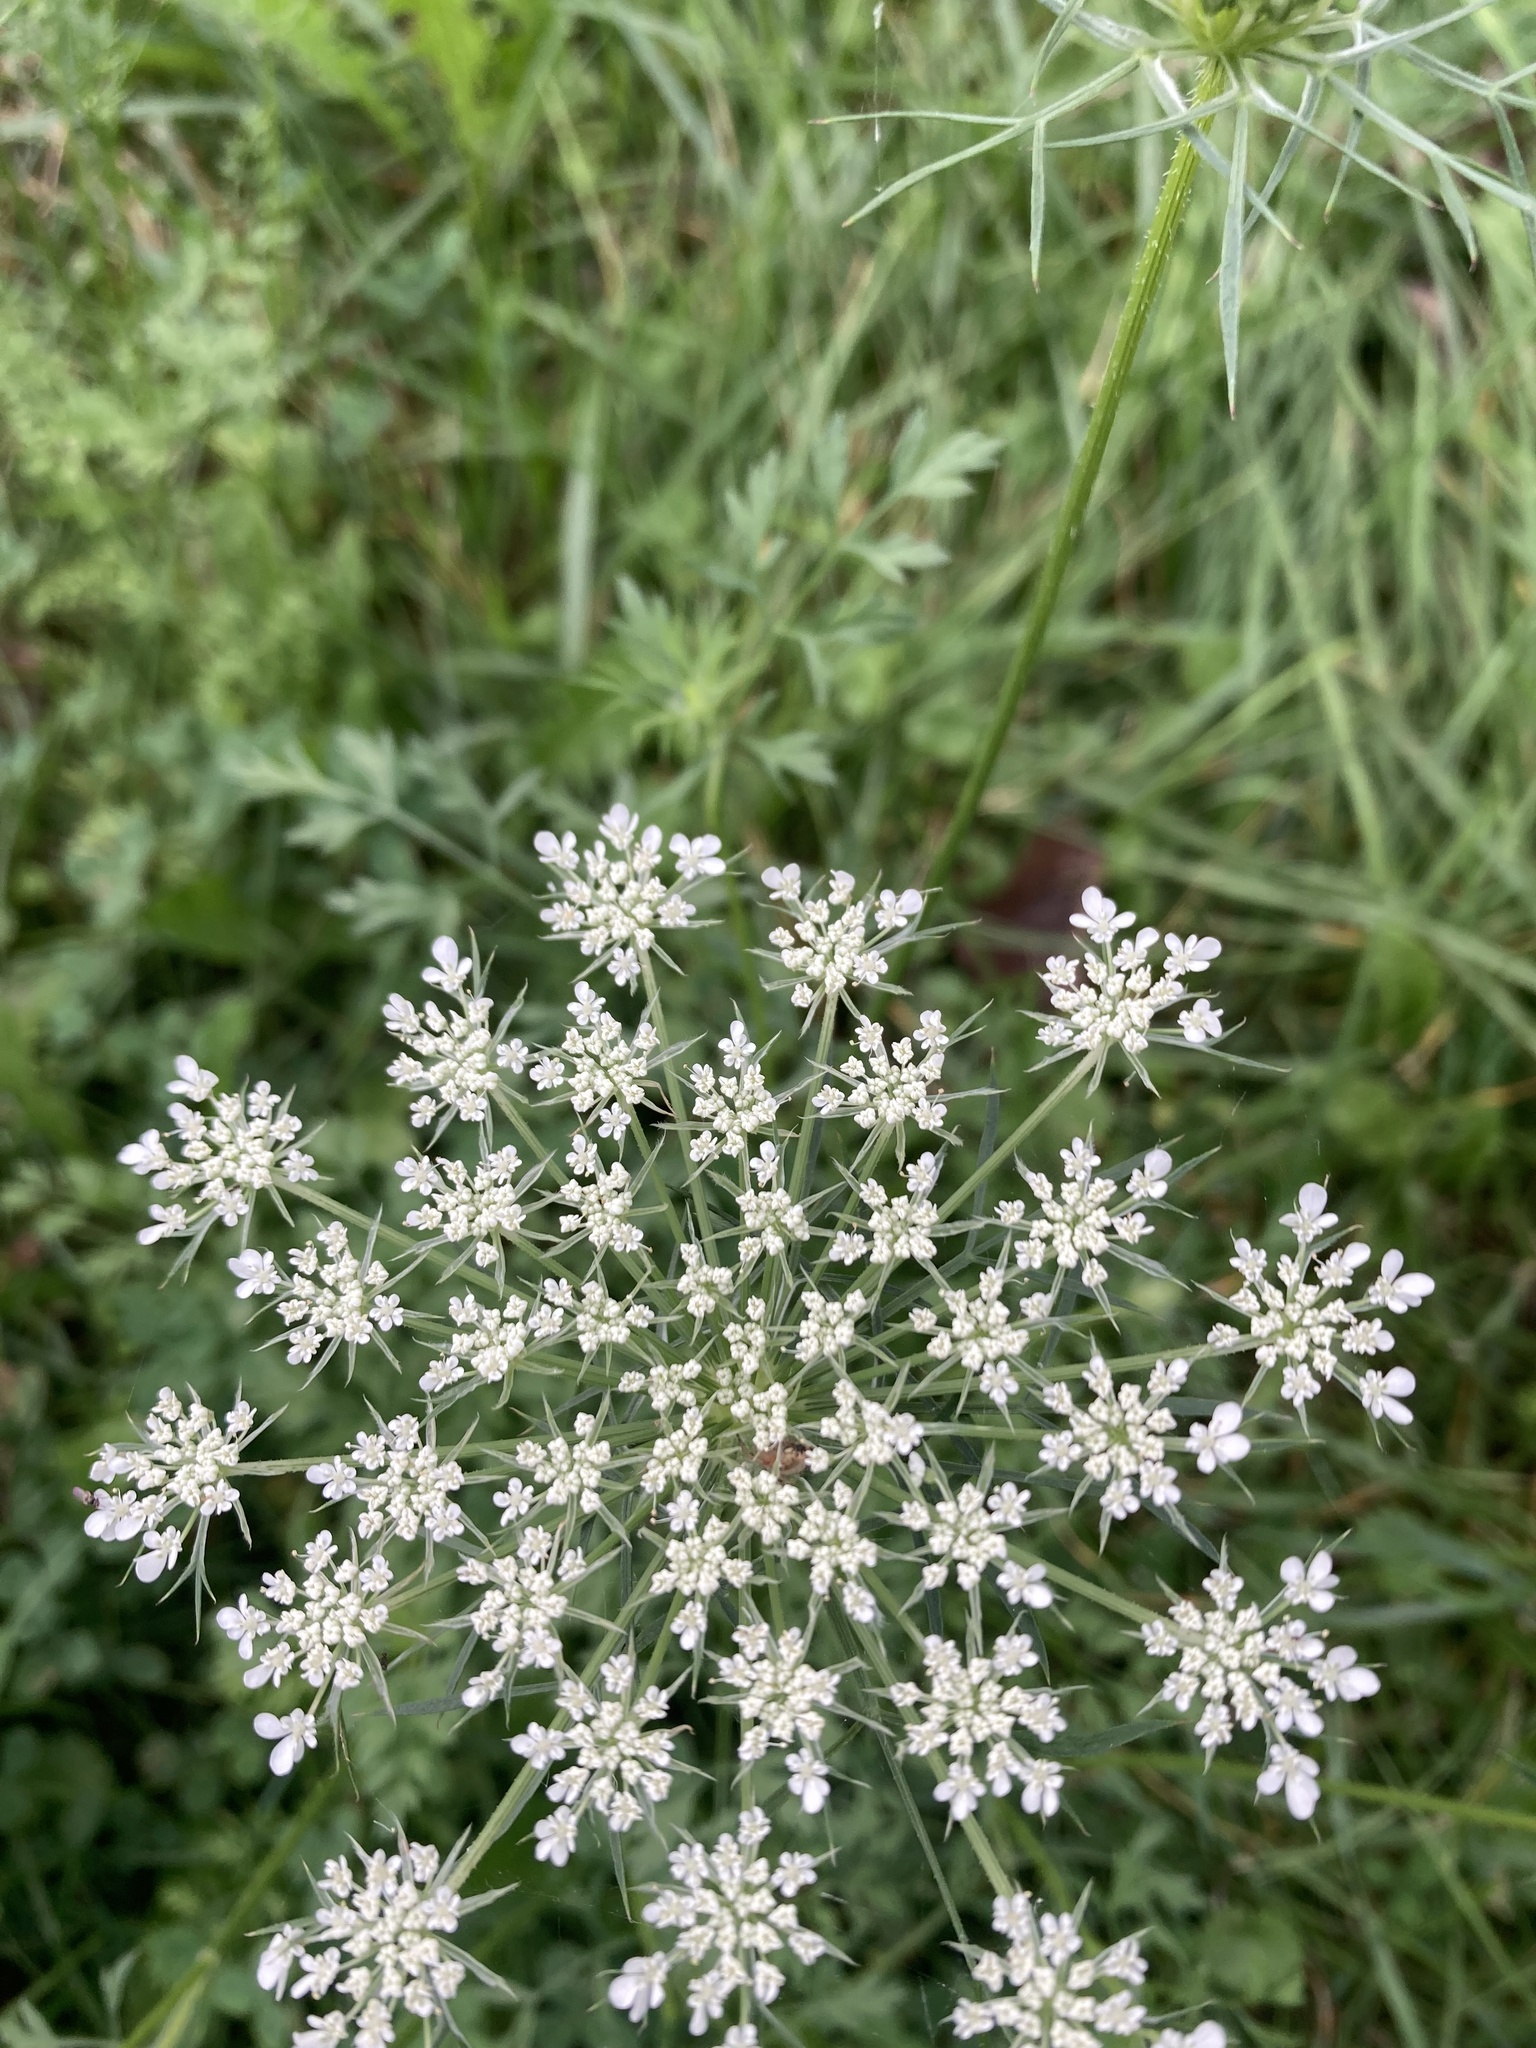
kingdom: Plantae
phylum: Tracheophyta
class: Magnoliopsida
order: Apiales
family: Apiaceae
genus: Daucus
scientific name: Daucus carota
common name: Wild carrot
